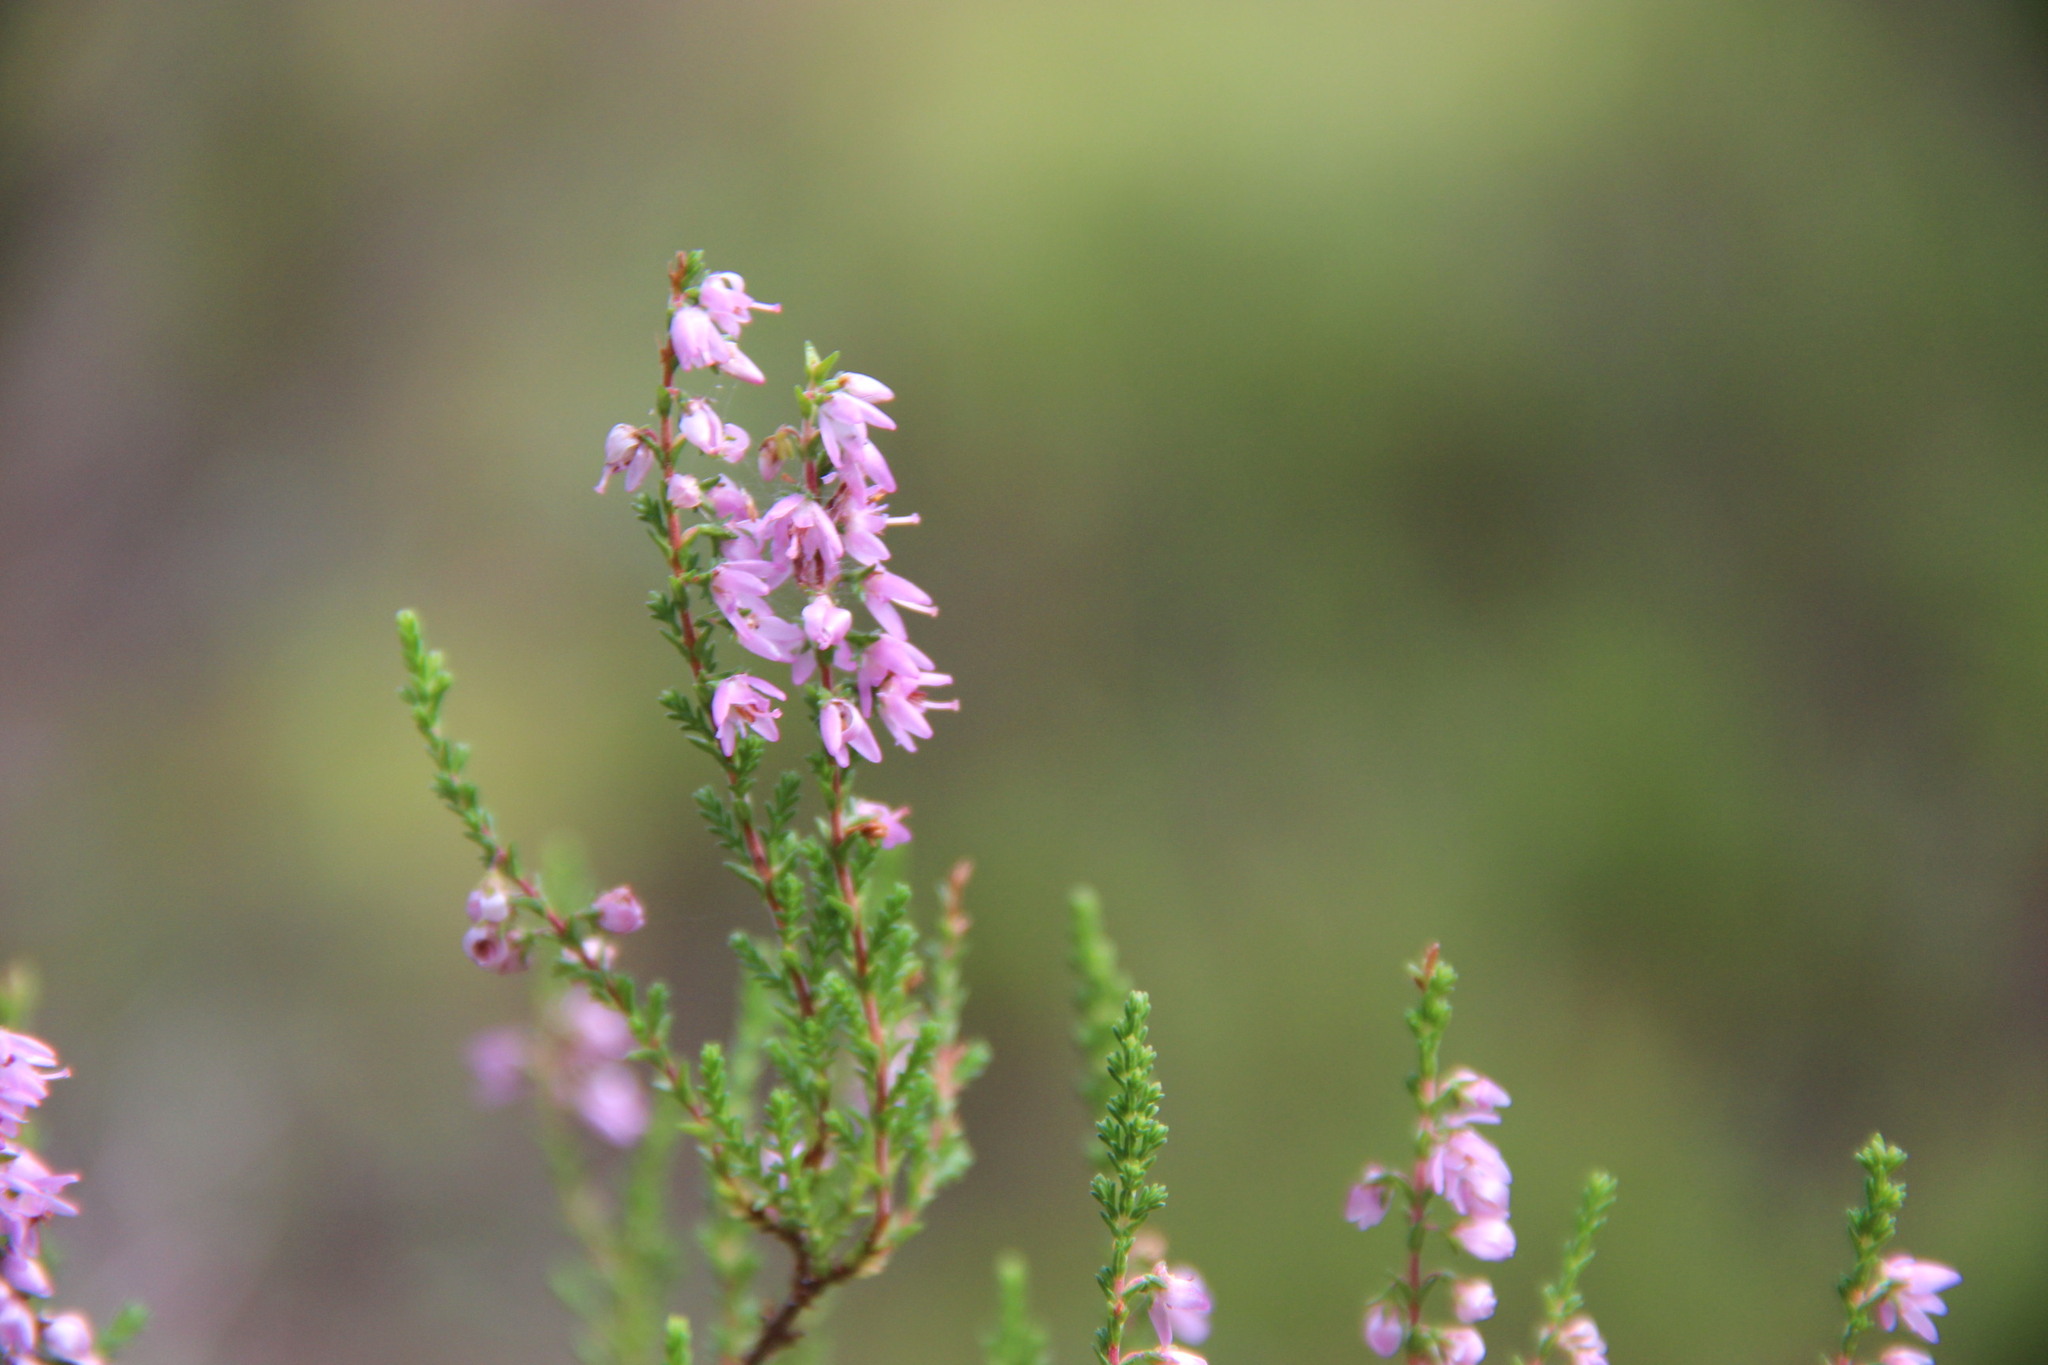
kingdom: Plantae
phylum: Tracheophyta
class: Magnoliopsida
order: Ericales
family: Ericaceae
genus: Calluna
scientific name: Calluna vulgaris
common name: Heather
